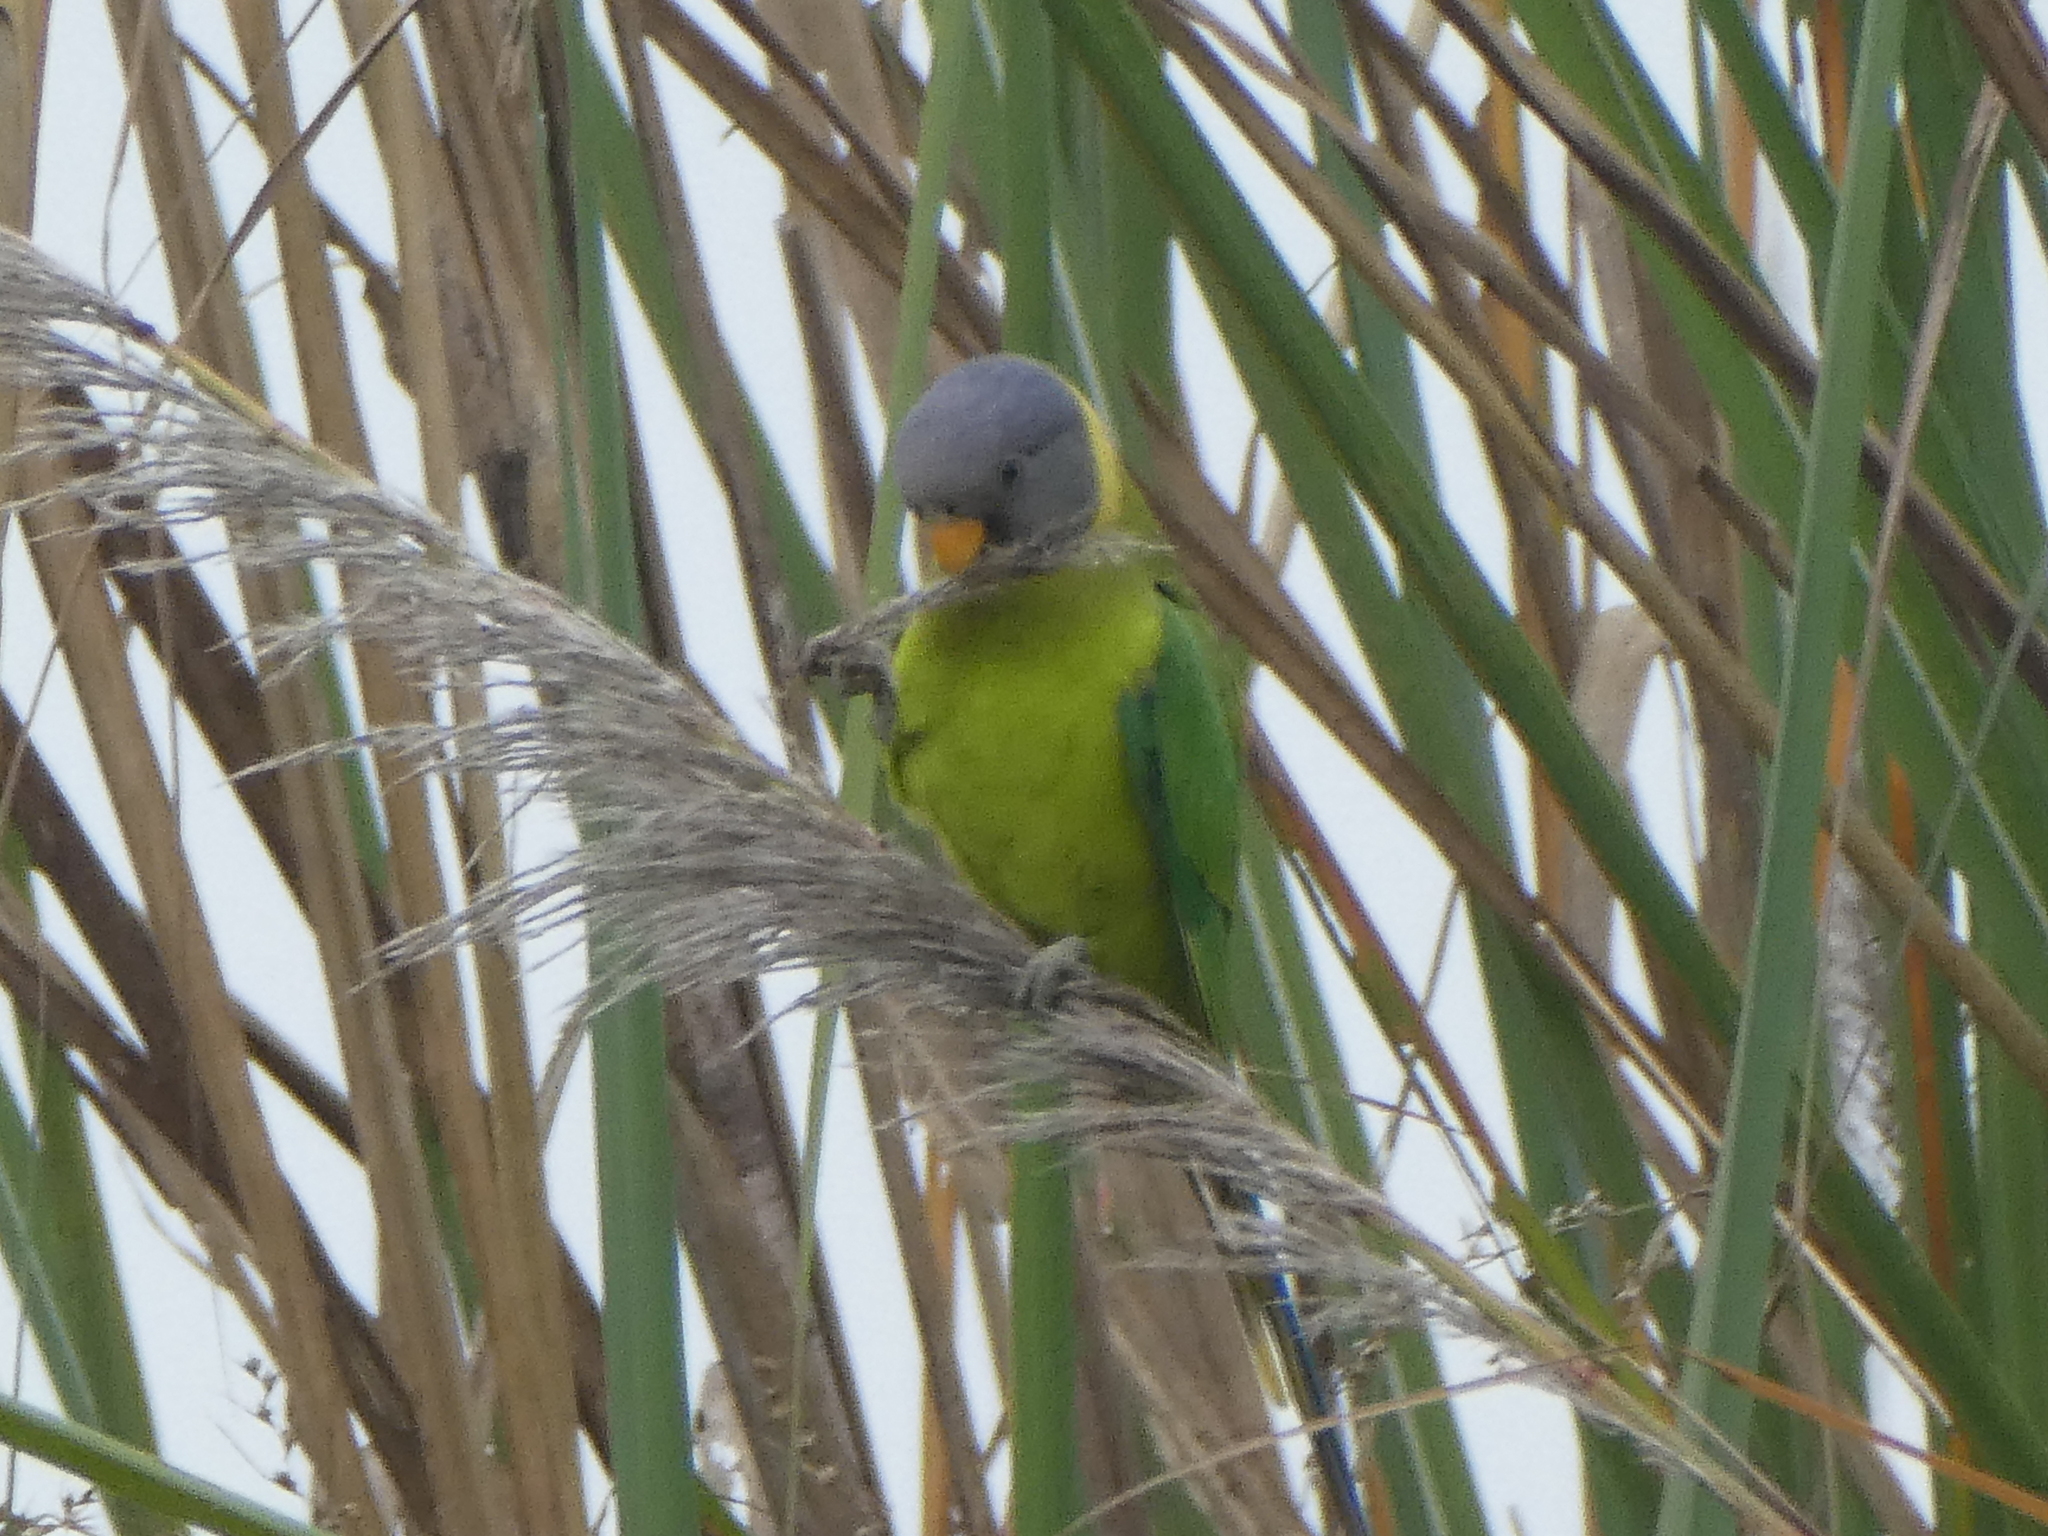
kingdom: Animalia
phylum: Chordata
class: Aves
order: Psittaciformes
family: Psittacidae
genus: Psittacula
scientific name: Psittacula cyanocephala
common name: Plum-headed parakeet
